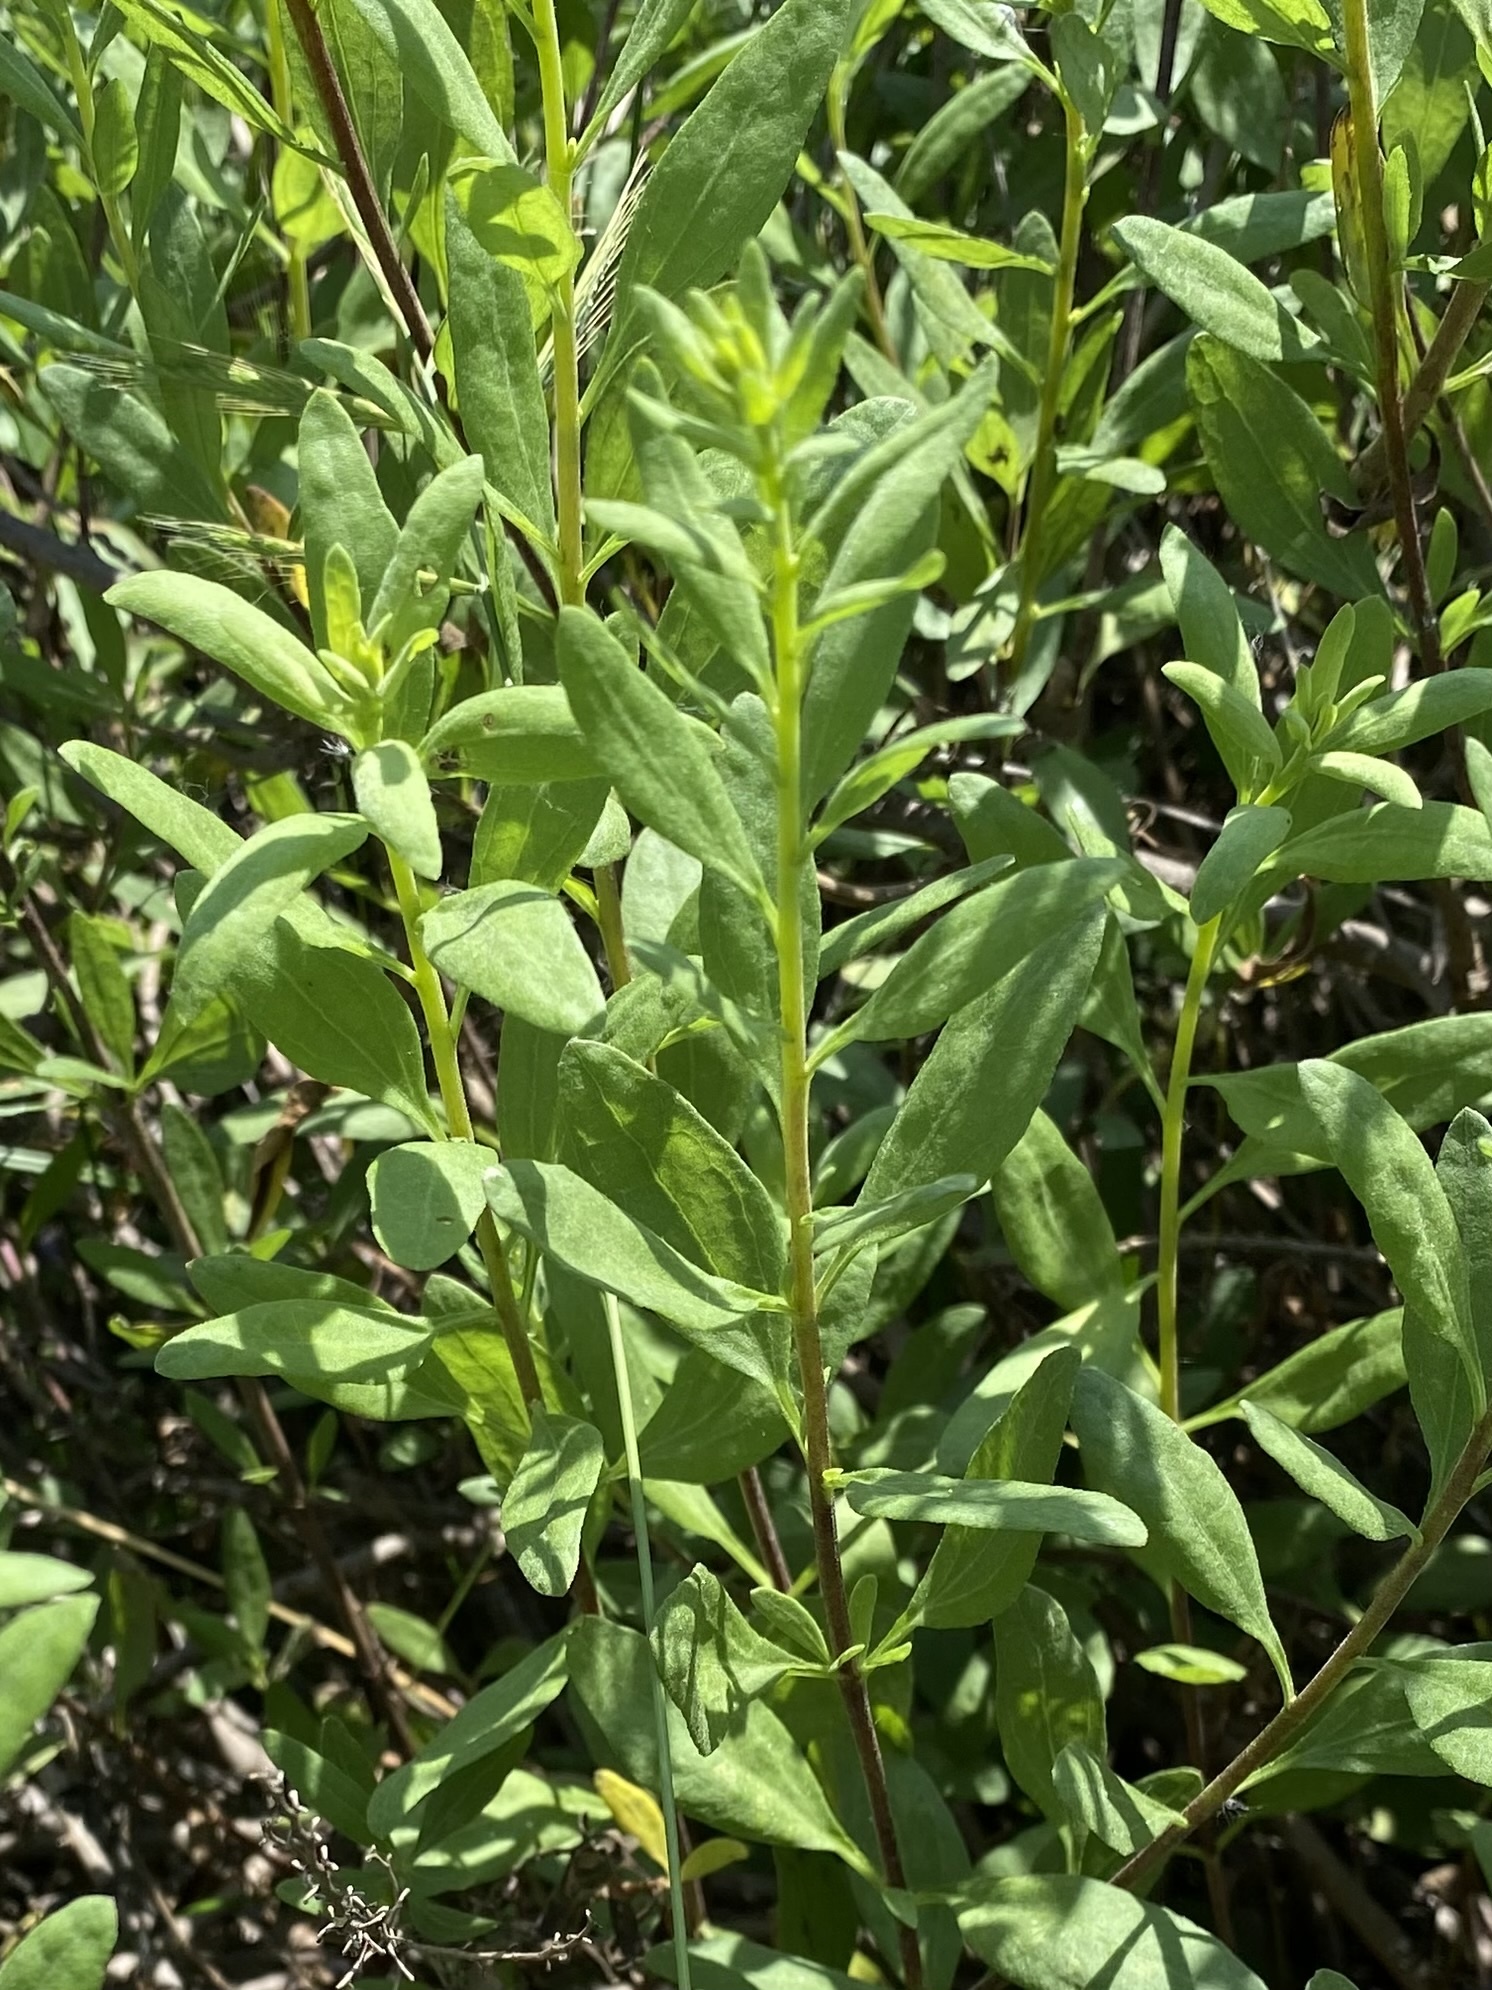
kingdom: Plantae
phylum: Tracheophyta
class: Magnoliopsida
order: Asterales
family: Asteraceae
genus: Iva
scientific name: Iva hayesiana
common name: San diego marsh-elder
